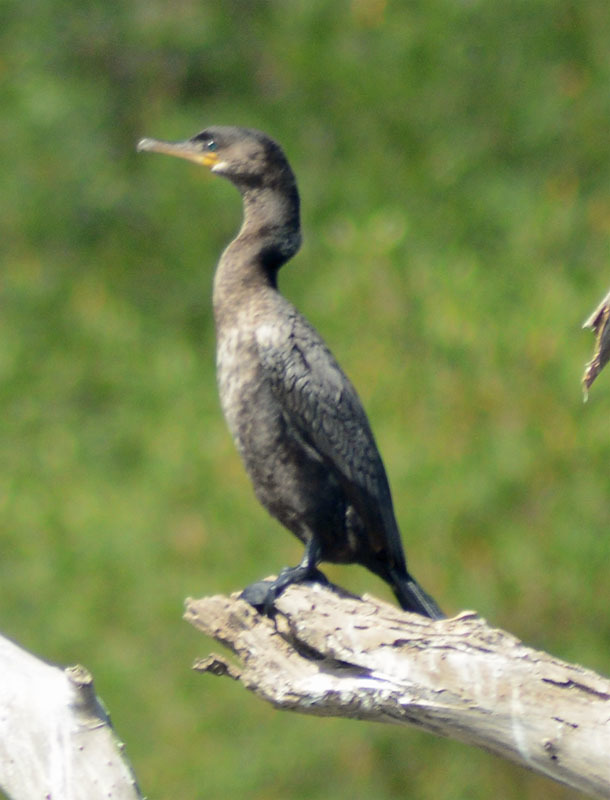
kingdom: Animalia
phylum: Chordata
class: Aves
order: Suliformes
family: Phalacrocoracidae
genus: Phalacrocorax
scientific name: Phalacrocorax brasilianus
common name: Neotropic cormorant
